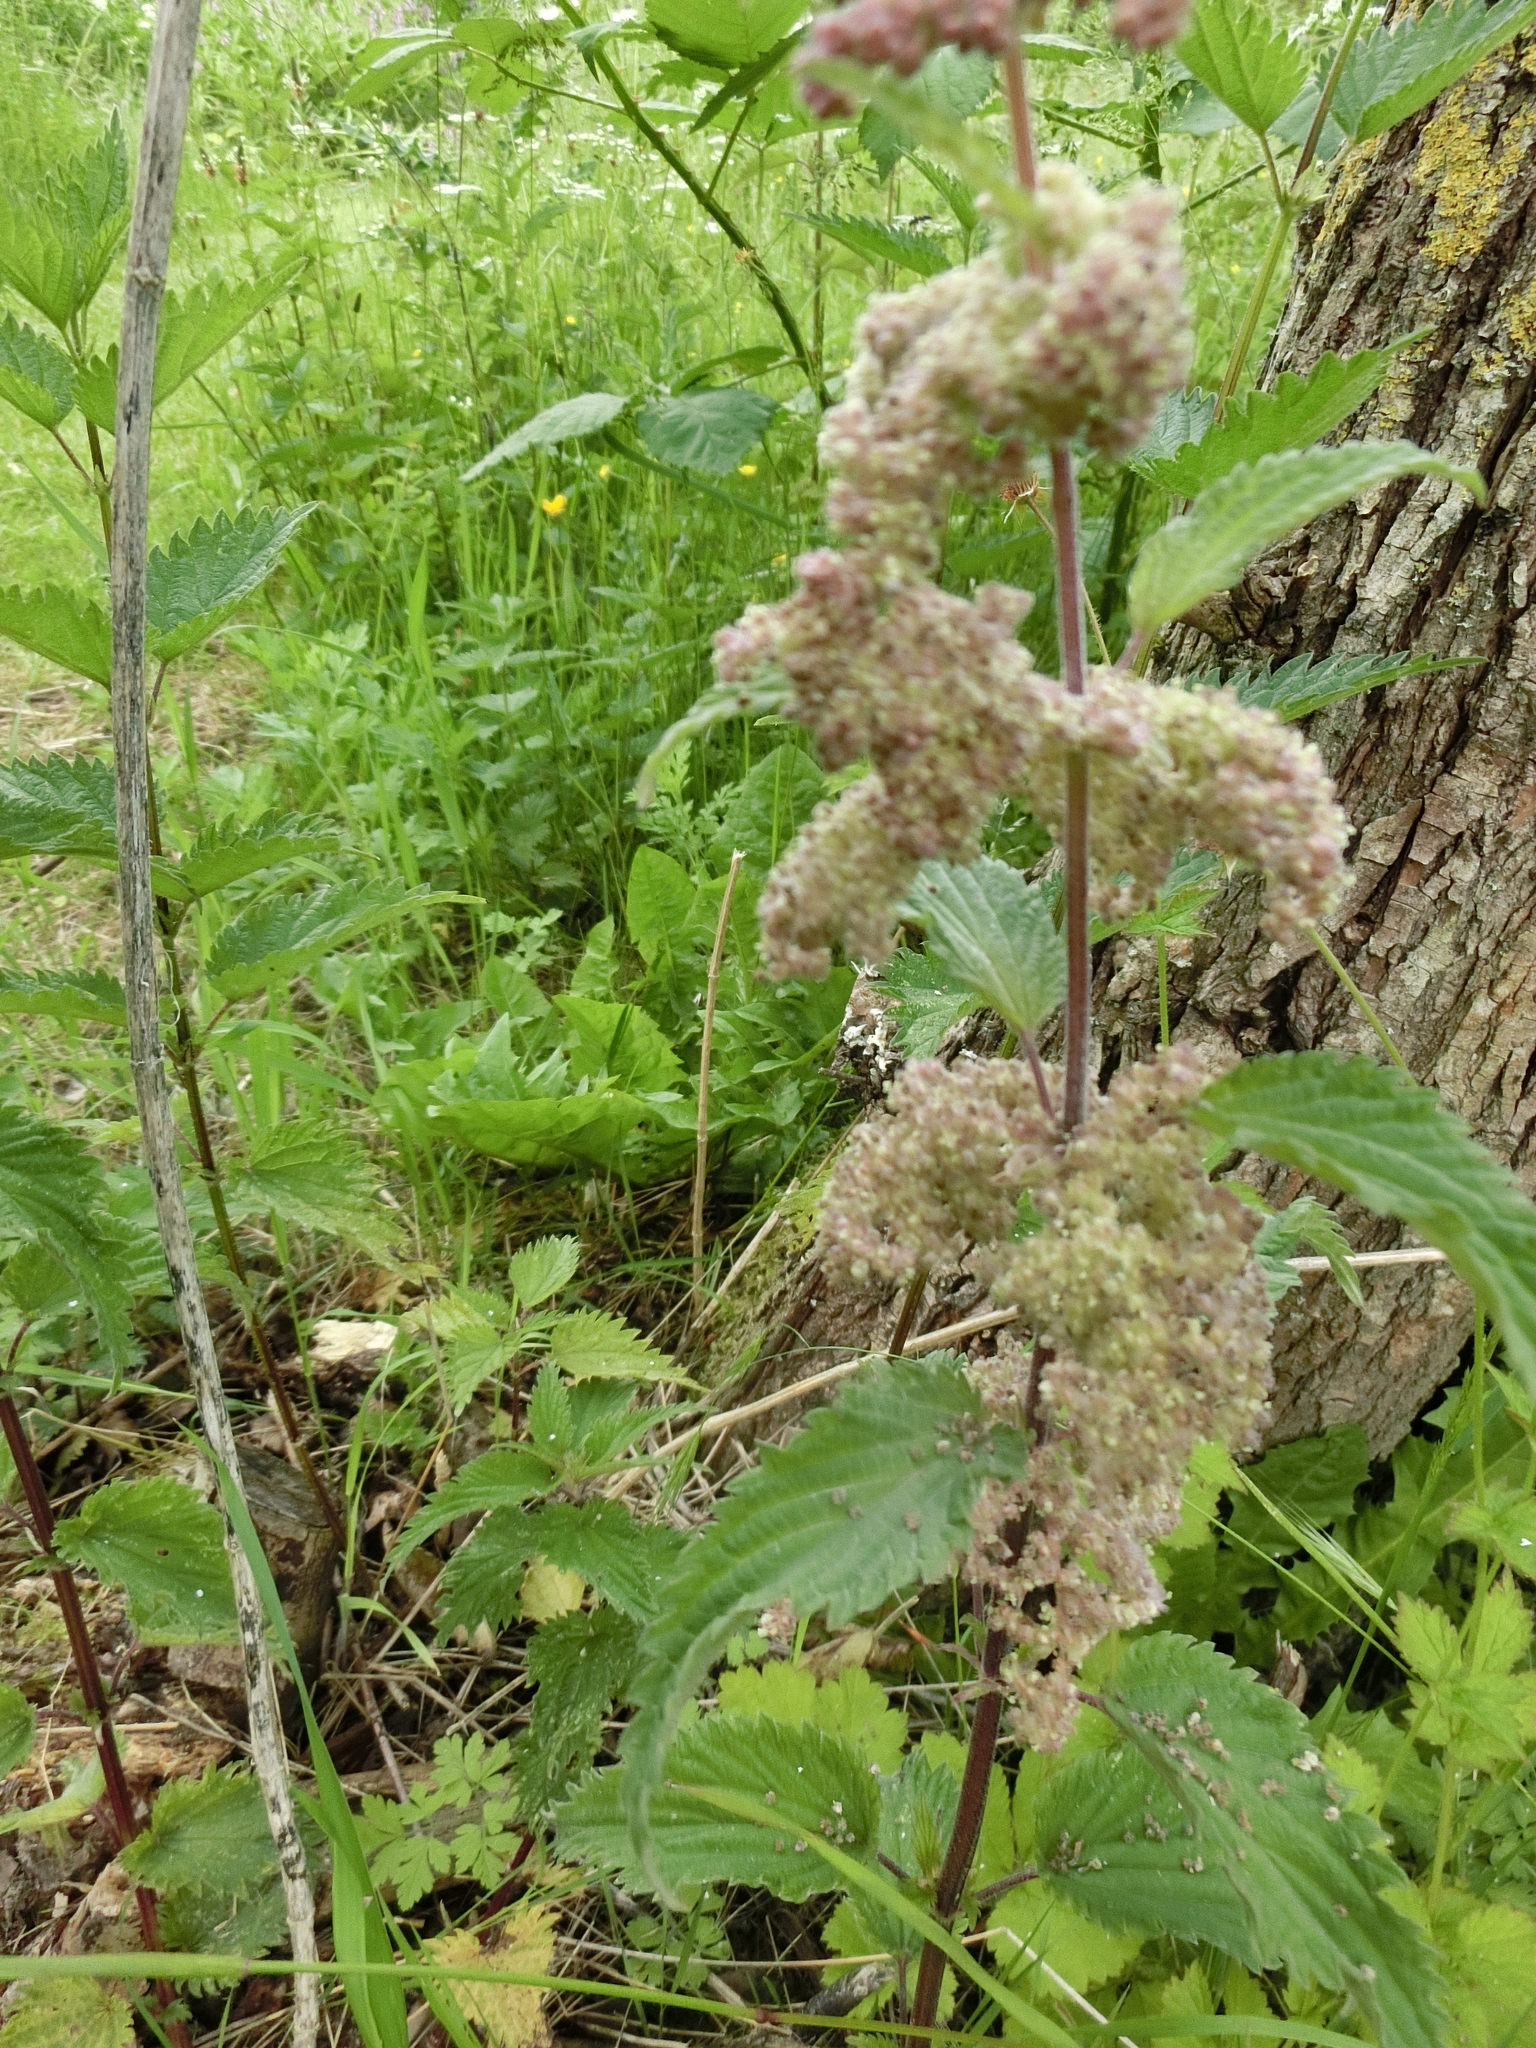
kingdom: Plantae
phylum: Tracheophyta
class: Magnoliopsida
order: Rosales
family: Urticaceae
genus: Urtica
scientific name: Urtica dioica
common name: Common nettle
